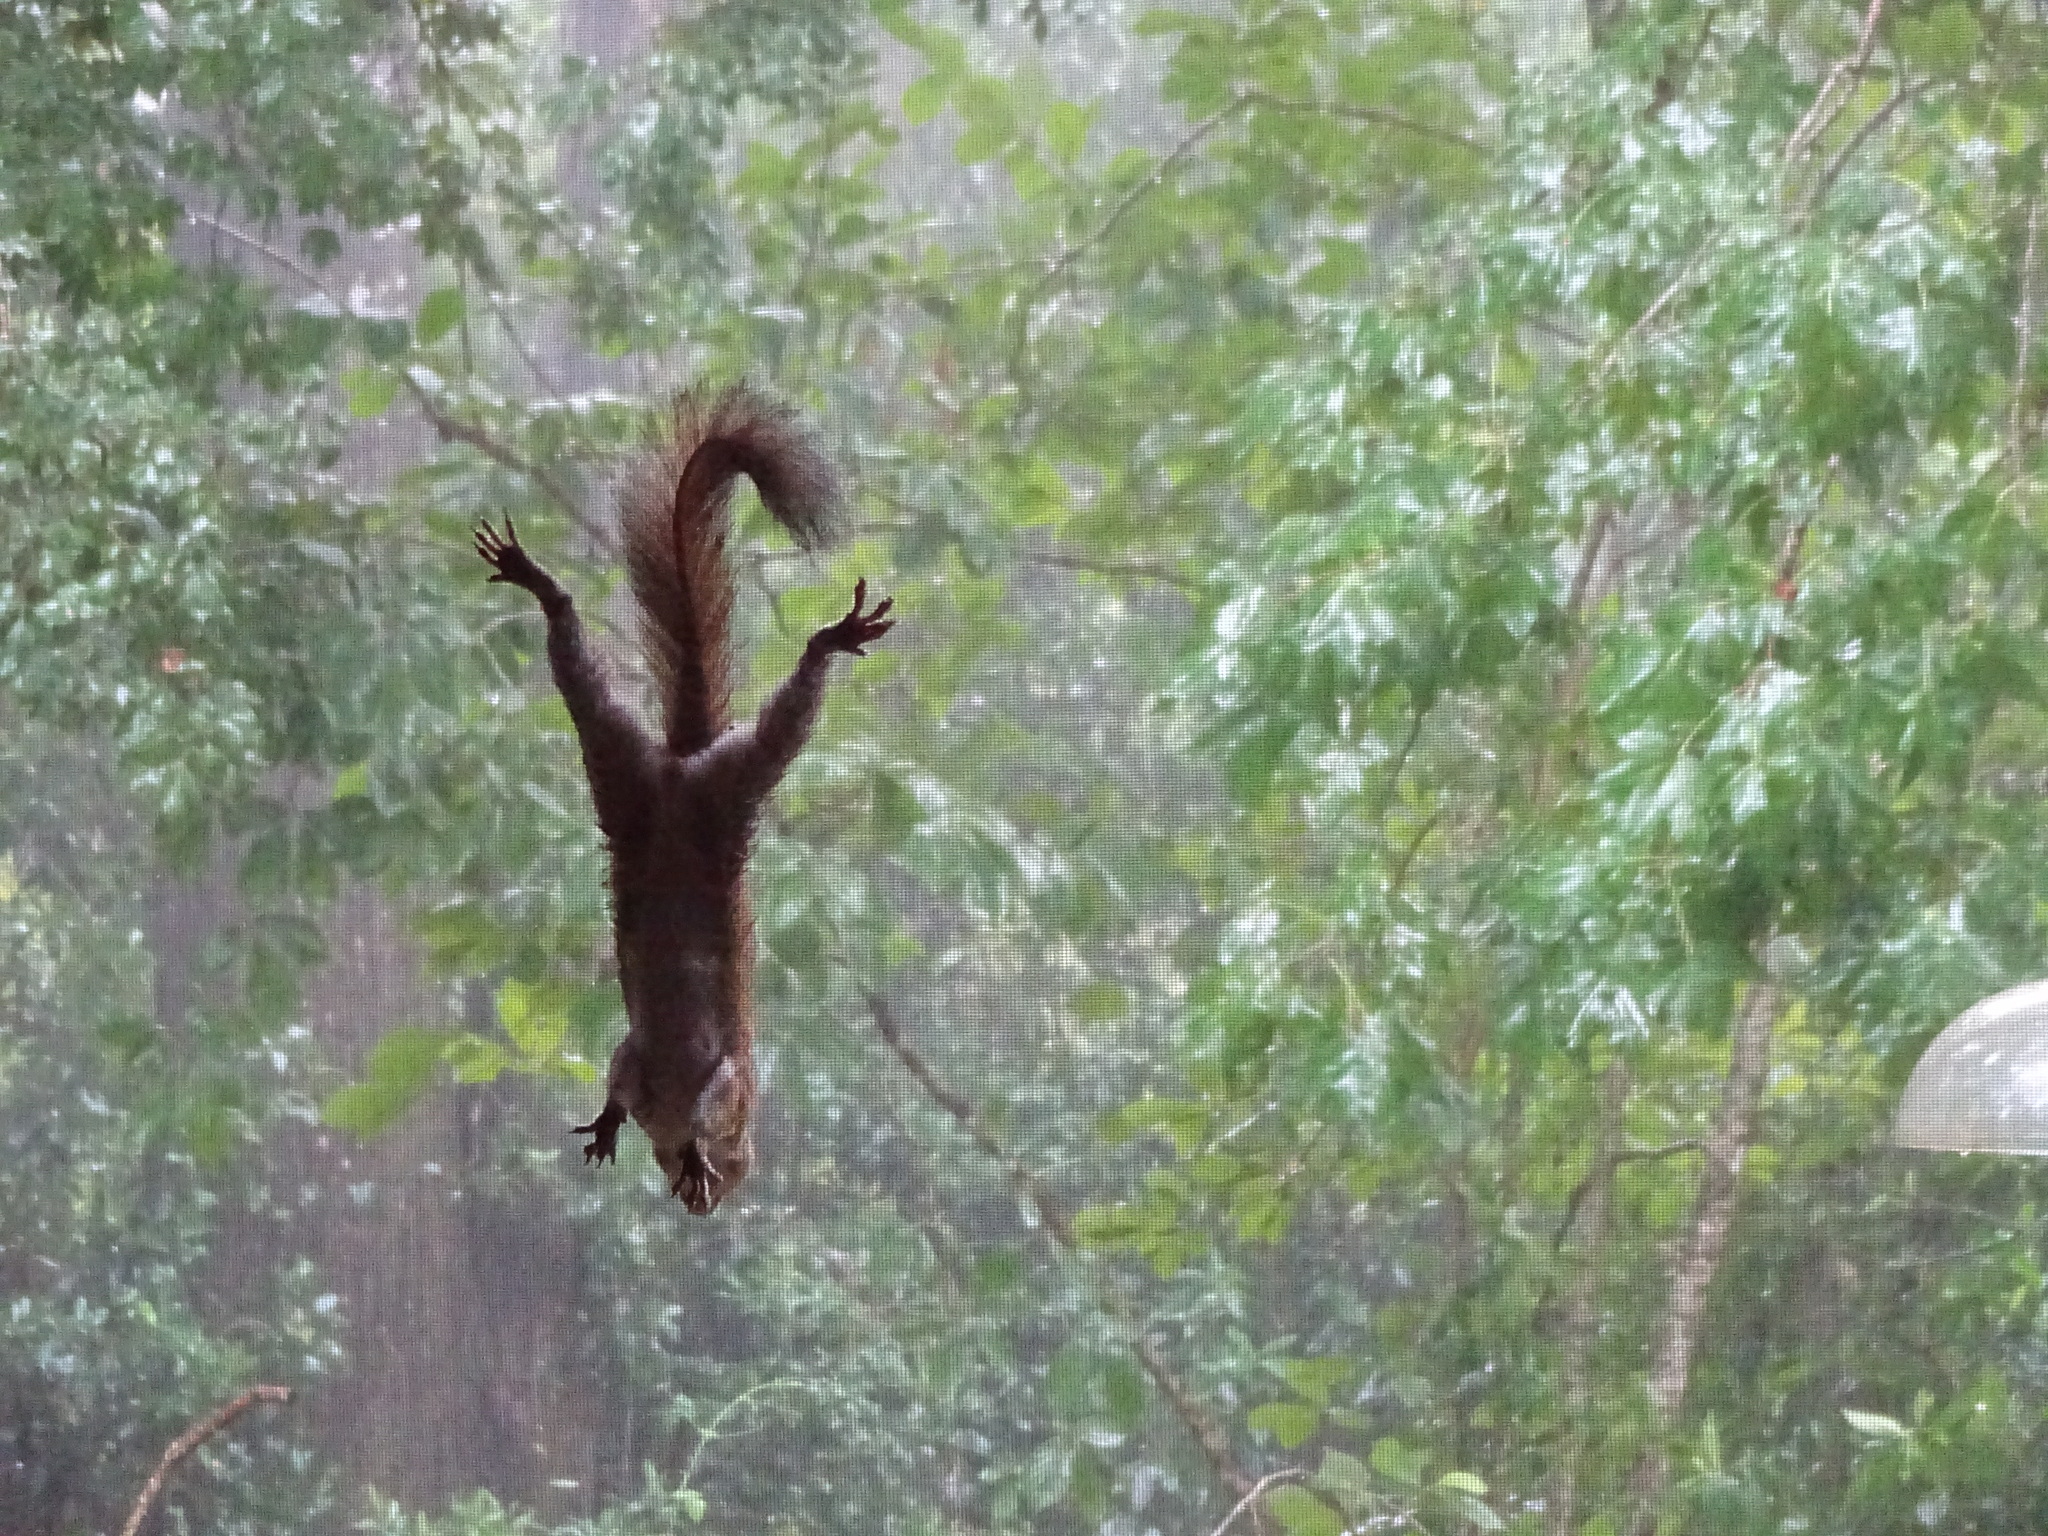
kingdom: Animalia
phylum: Chordata
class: Mammalia
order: Rodentia
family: Sciuridae
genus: Sciurus
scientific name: Sciurus carolinensis
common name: Eastern gray squirrel
